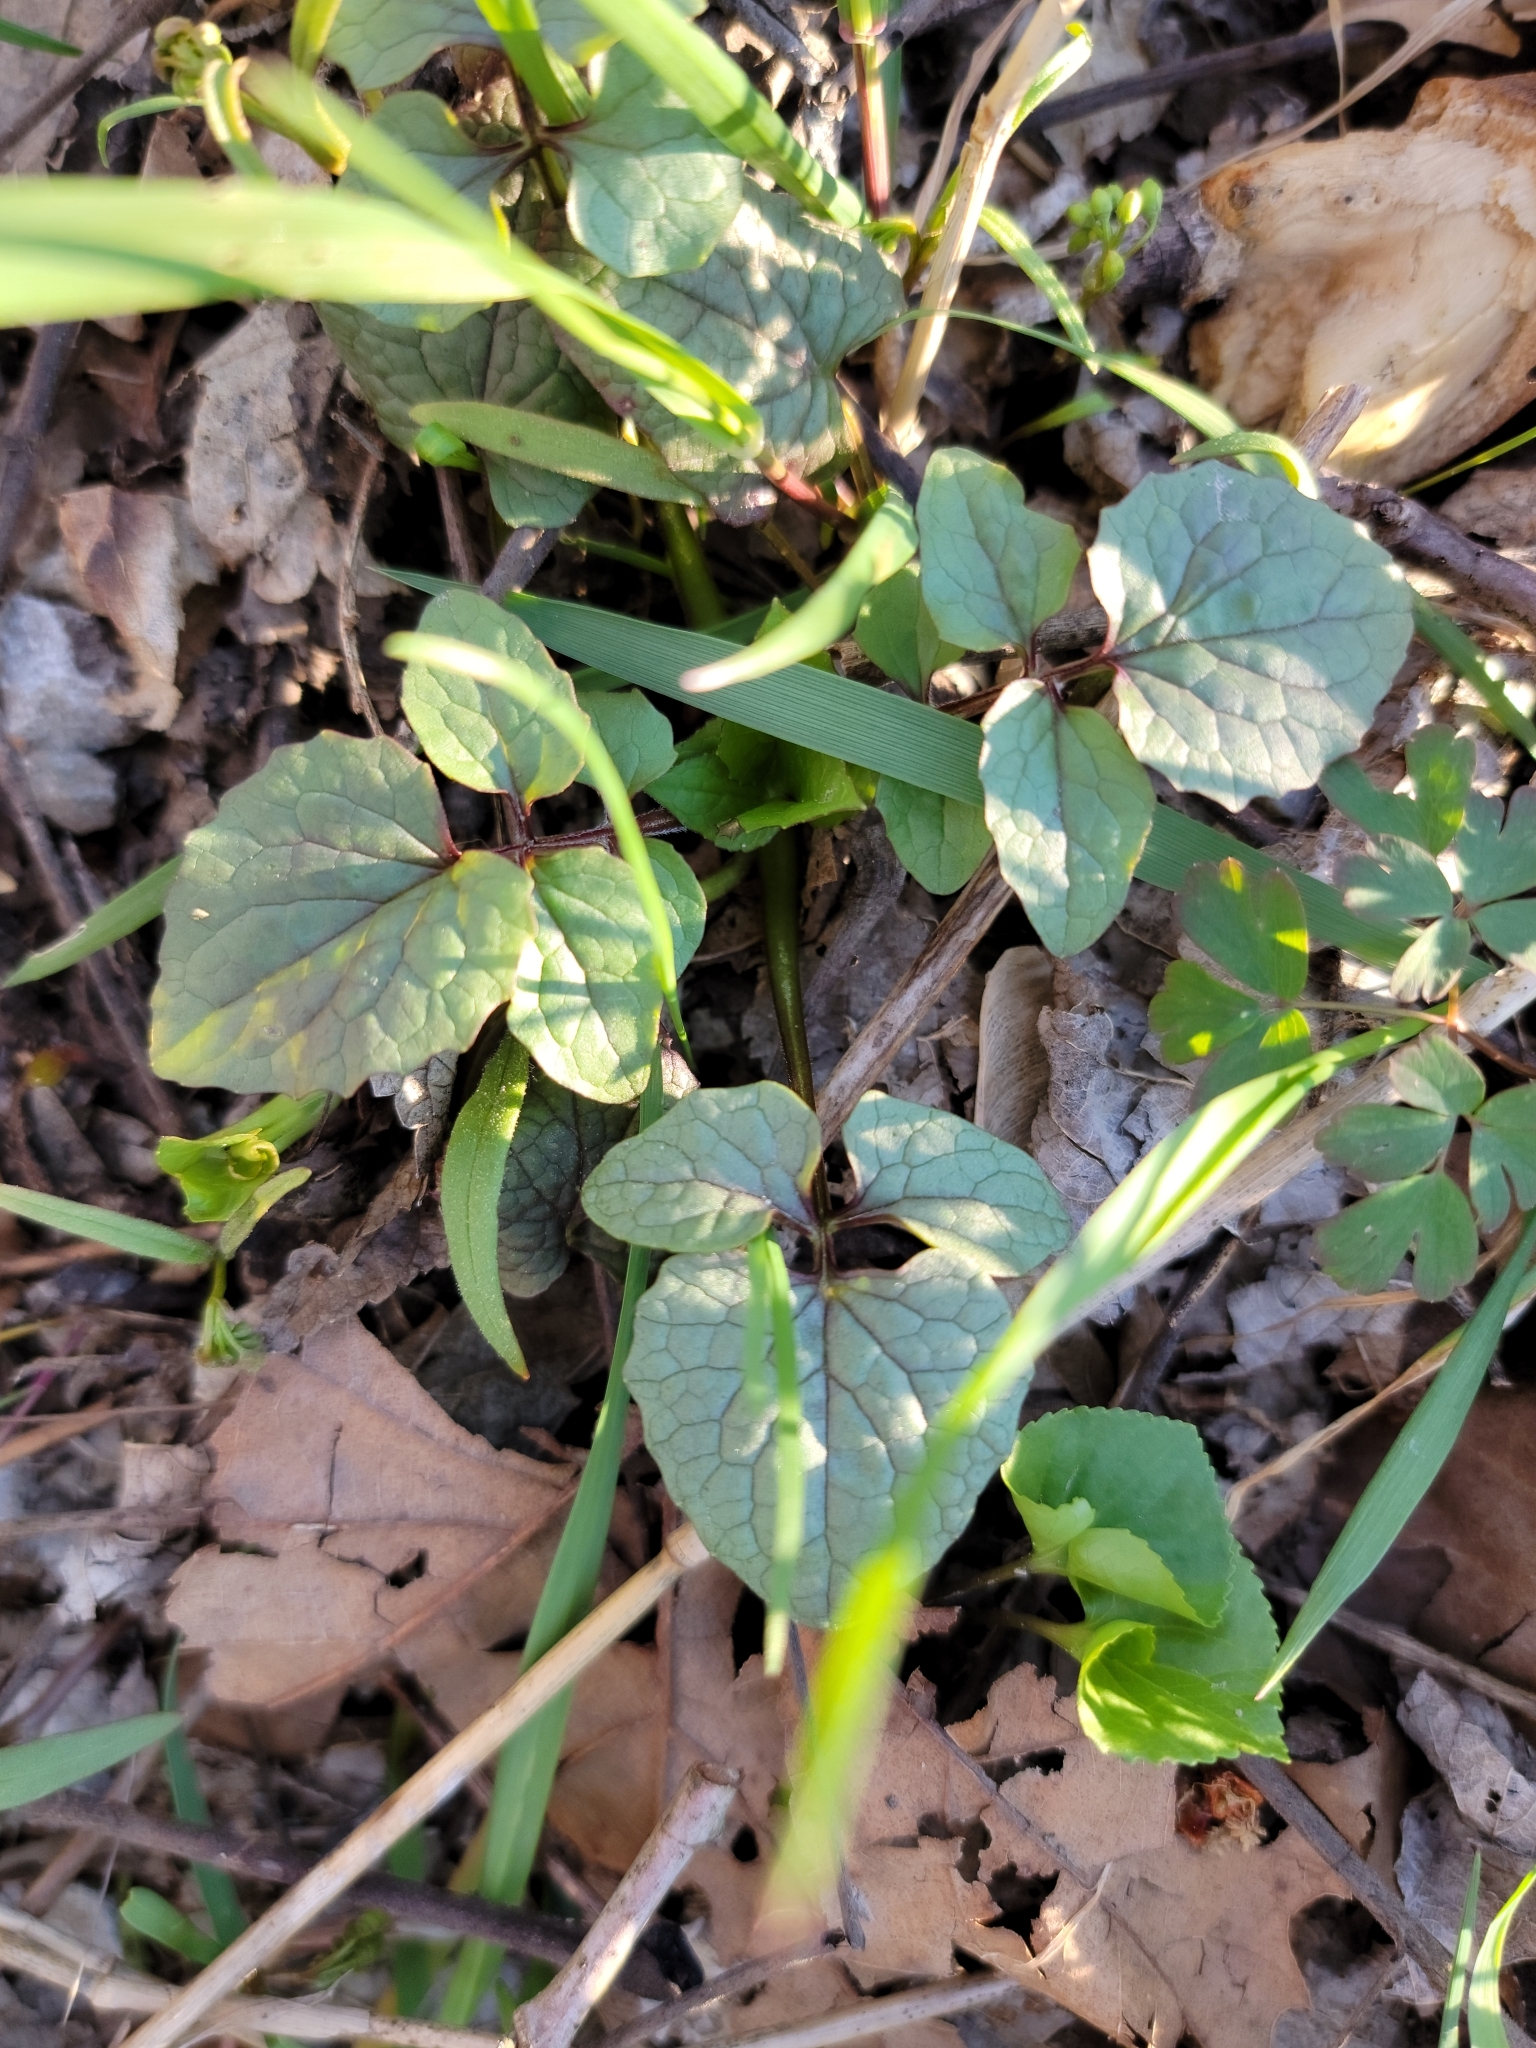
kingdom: Plantae
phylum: Tracheophyta
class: Magnoliopsida
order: Dipsacales
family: Caprifoliaceae
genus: Valeriana
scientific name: Valeriana pauciflora
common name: Long-tube valeriana
